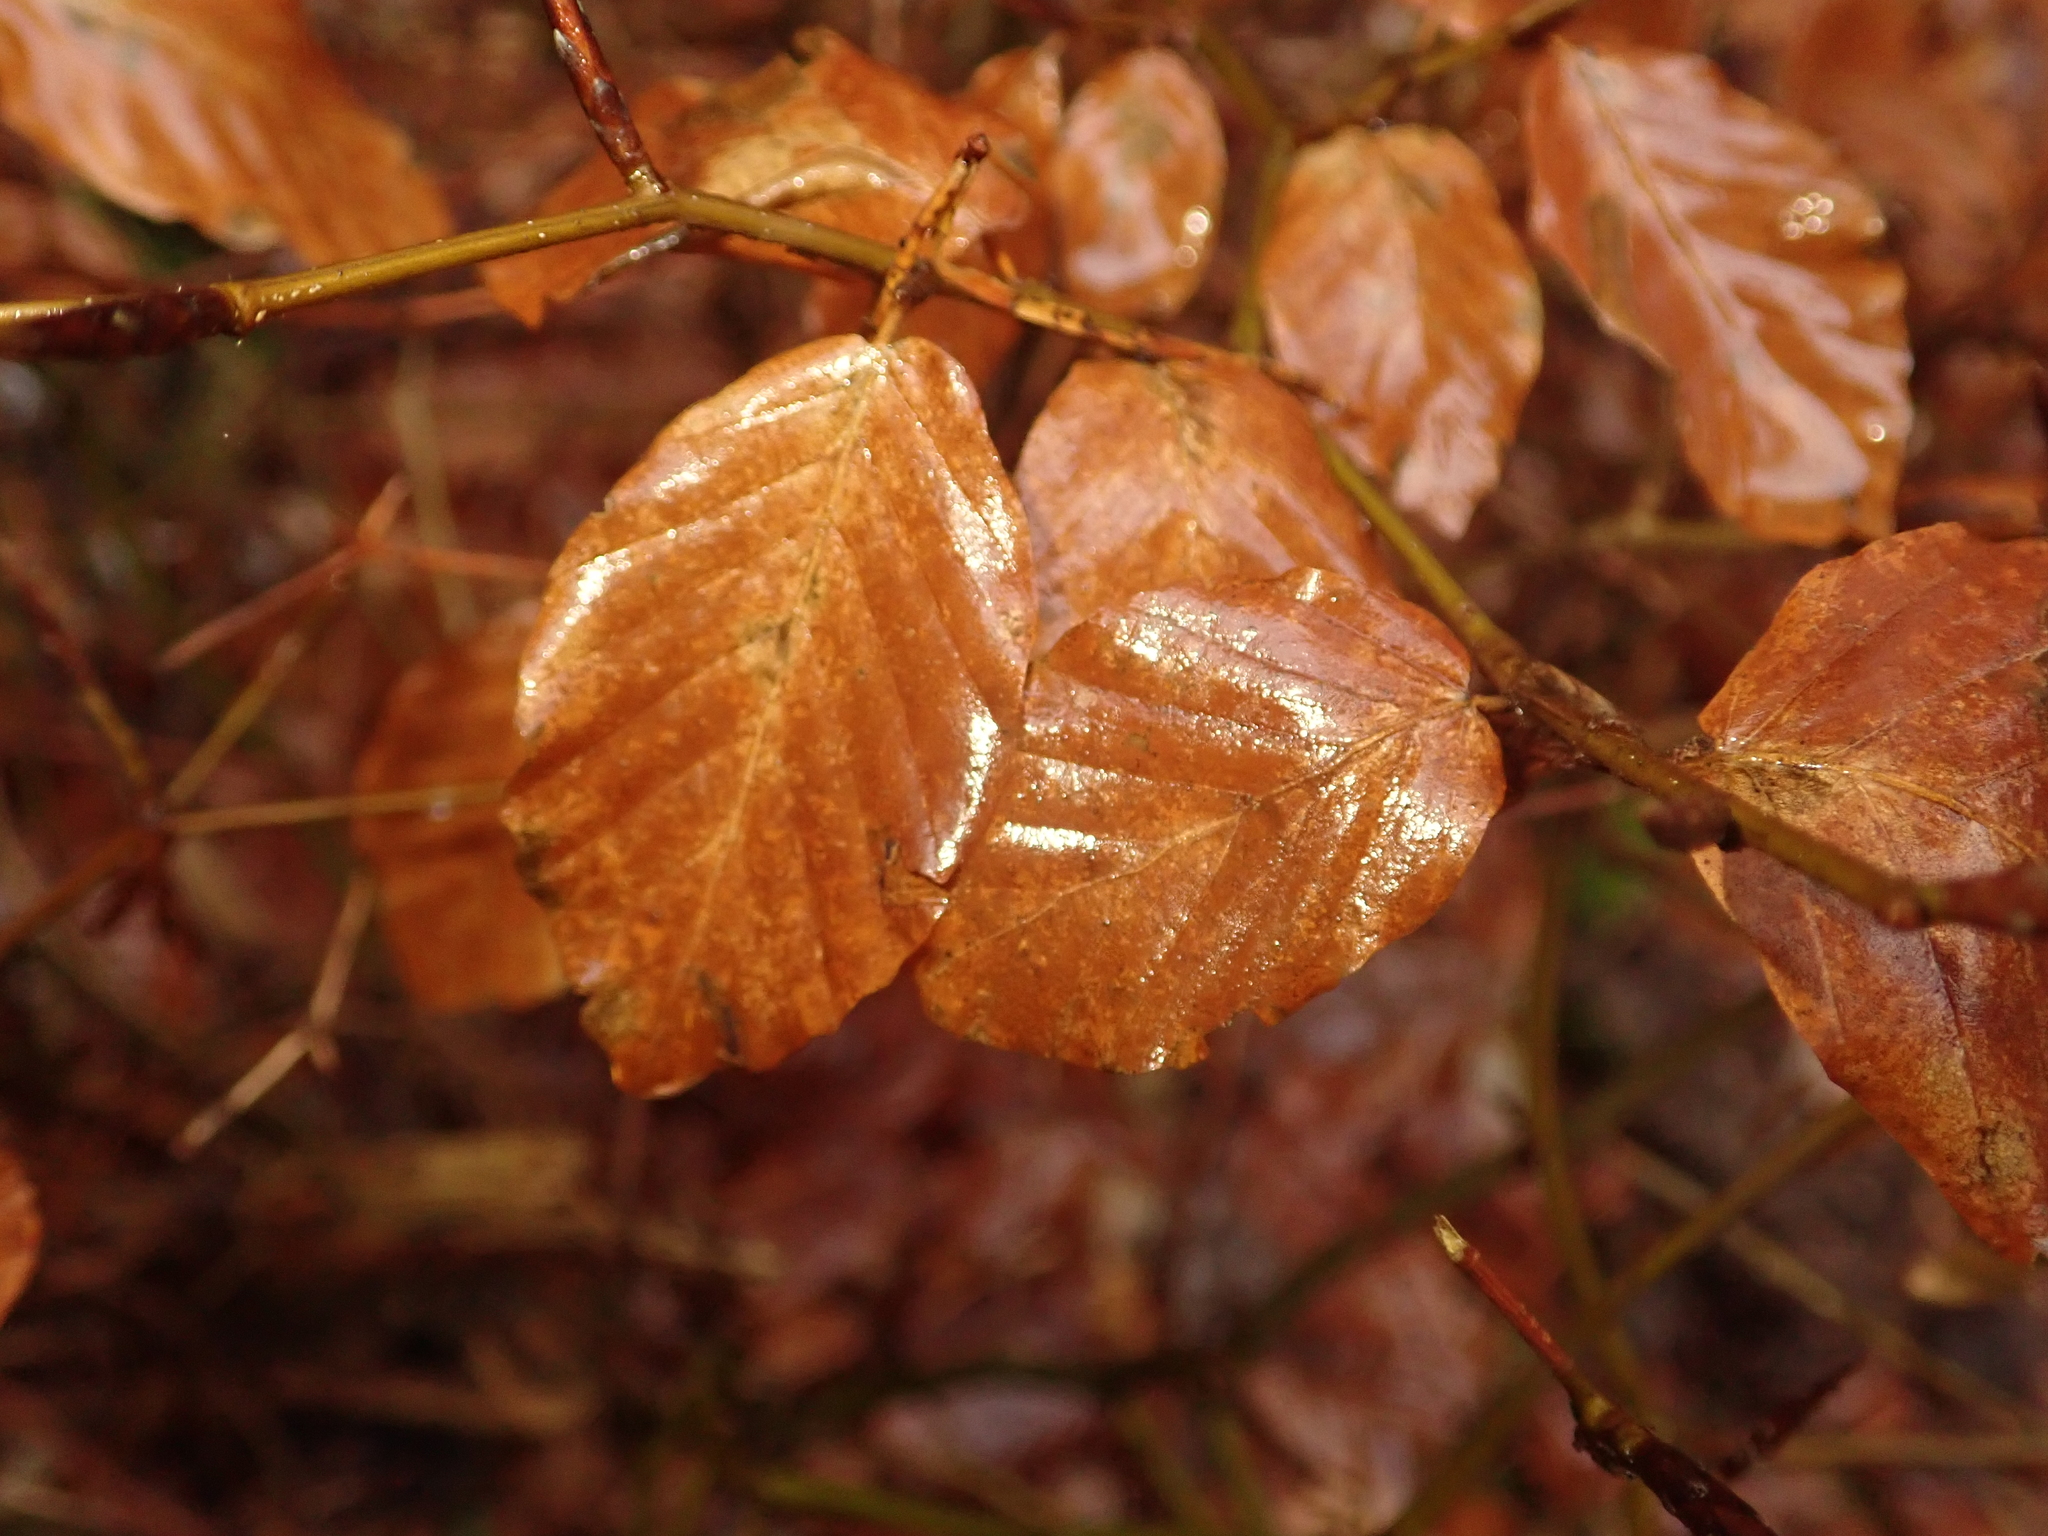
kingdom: Plantae
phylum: Tracheophyta
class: Magnoliopsida
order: Fagales
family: Fagaceae
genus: Fagus
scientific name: Fagus sylvatica
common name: Beech
